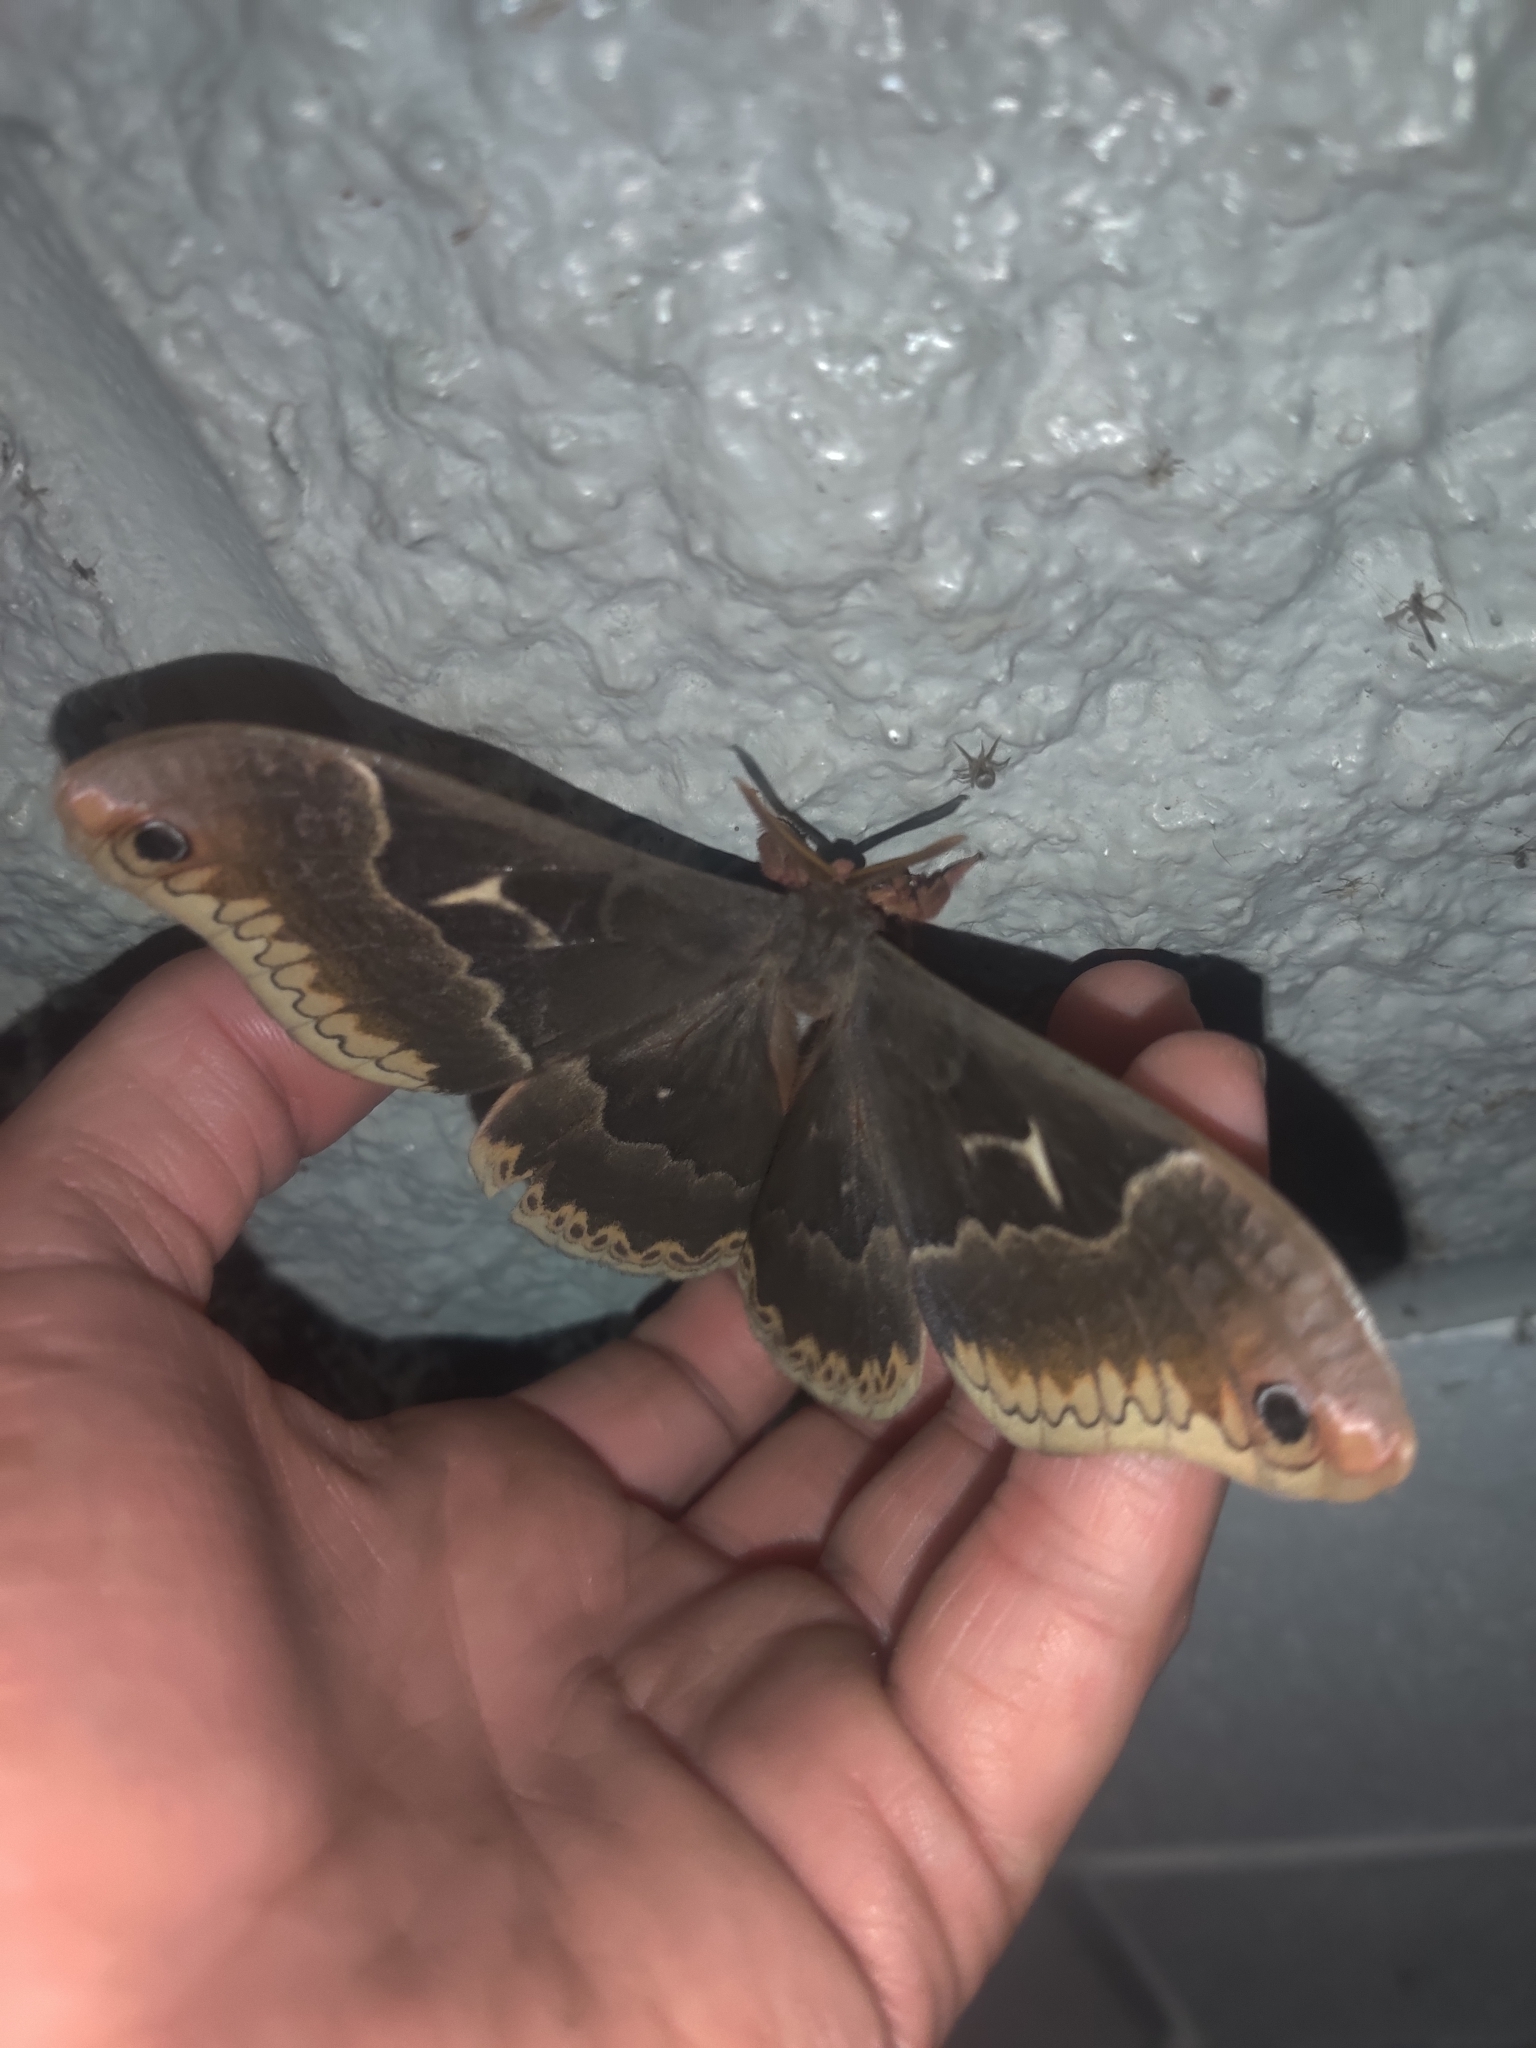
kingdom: Animalia
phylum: Arthropoda
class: Insecta
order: Lepidoptera
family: Saturniidae
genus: Callosamia
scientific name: Callosamia angulifera
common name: Tulip tree silkmoth
